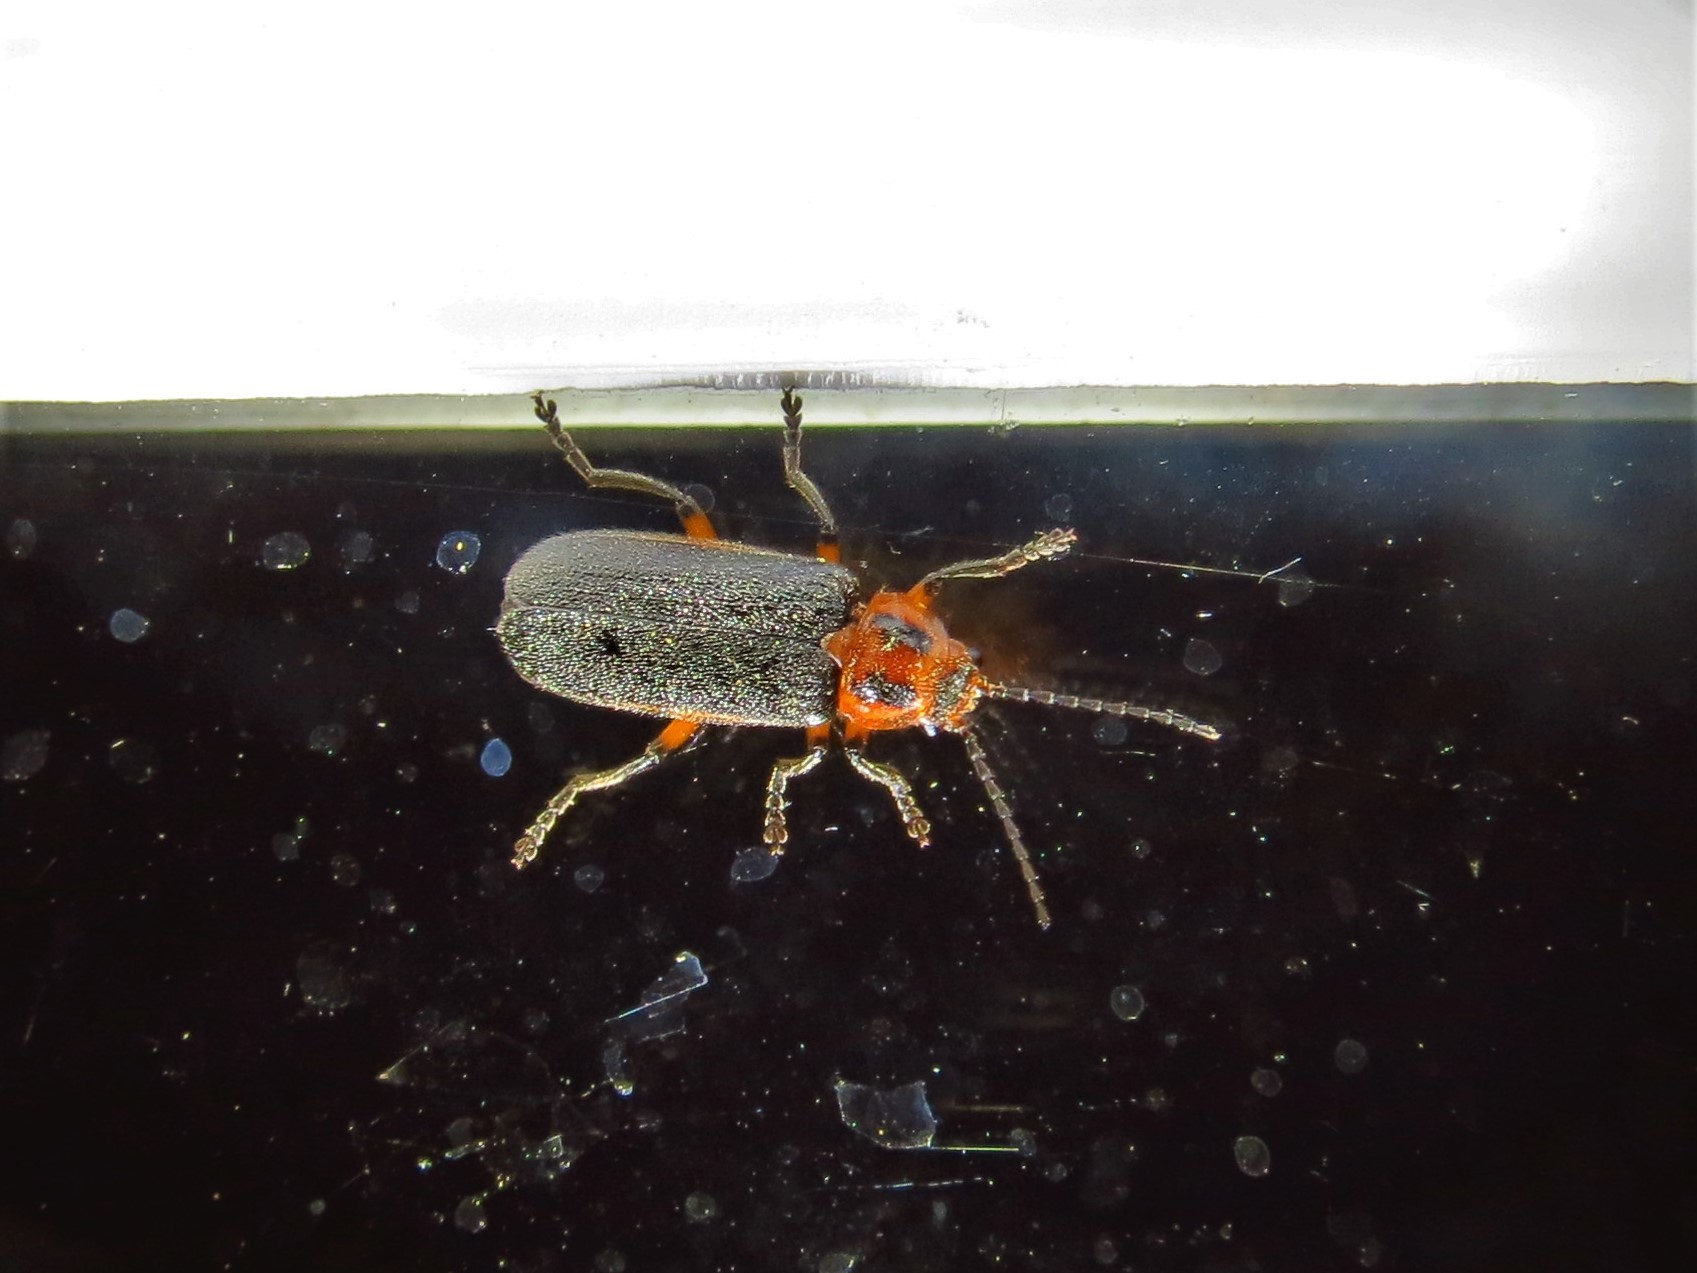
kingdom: Animalia
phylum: Arthropoda
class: Insecta
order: Coleoptera
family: Cantharidae
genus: Atalantycha
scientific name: Atalantycha bilineata
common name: Two-lined leatherwing
